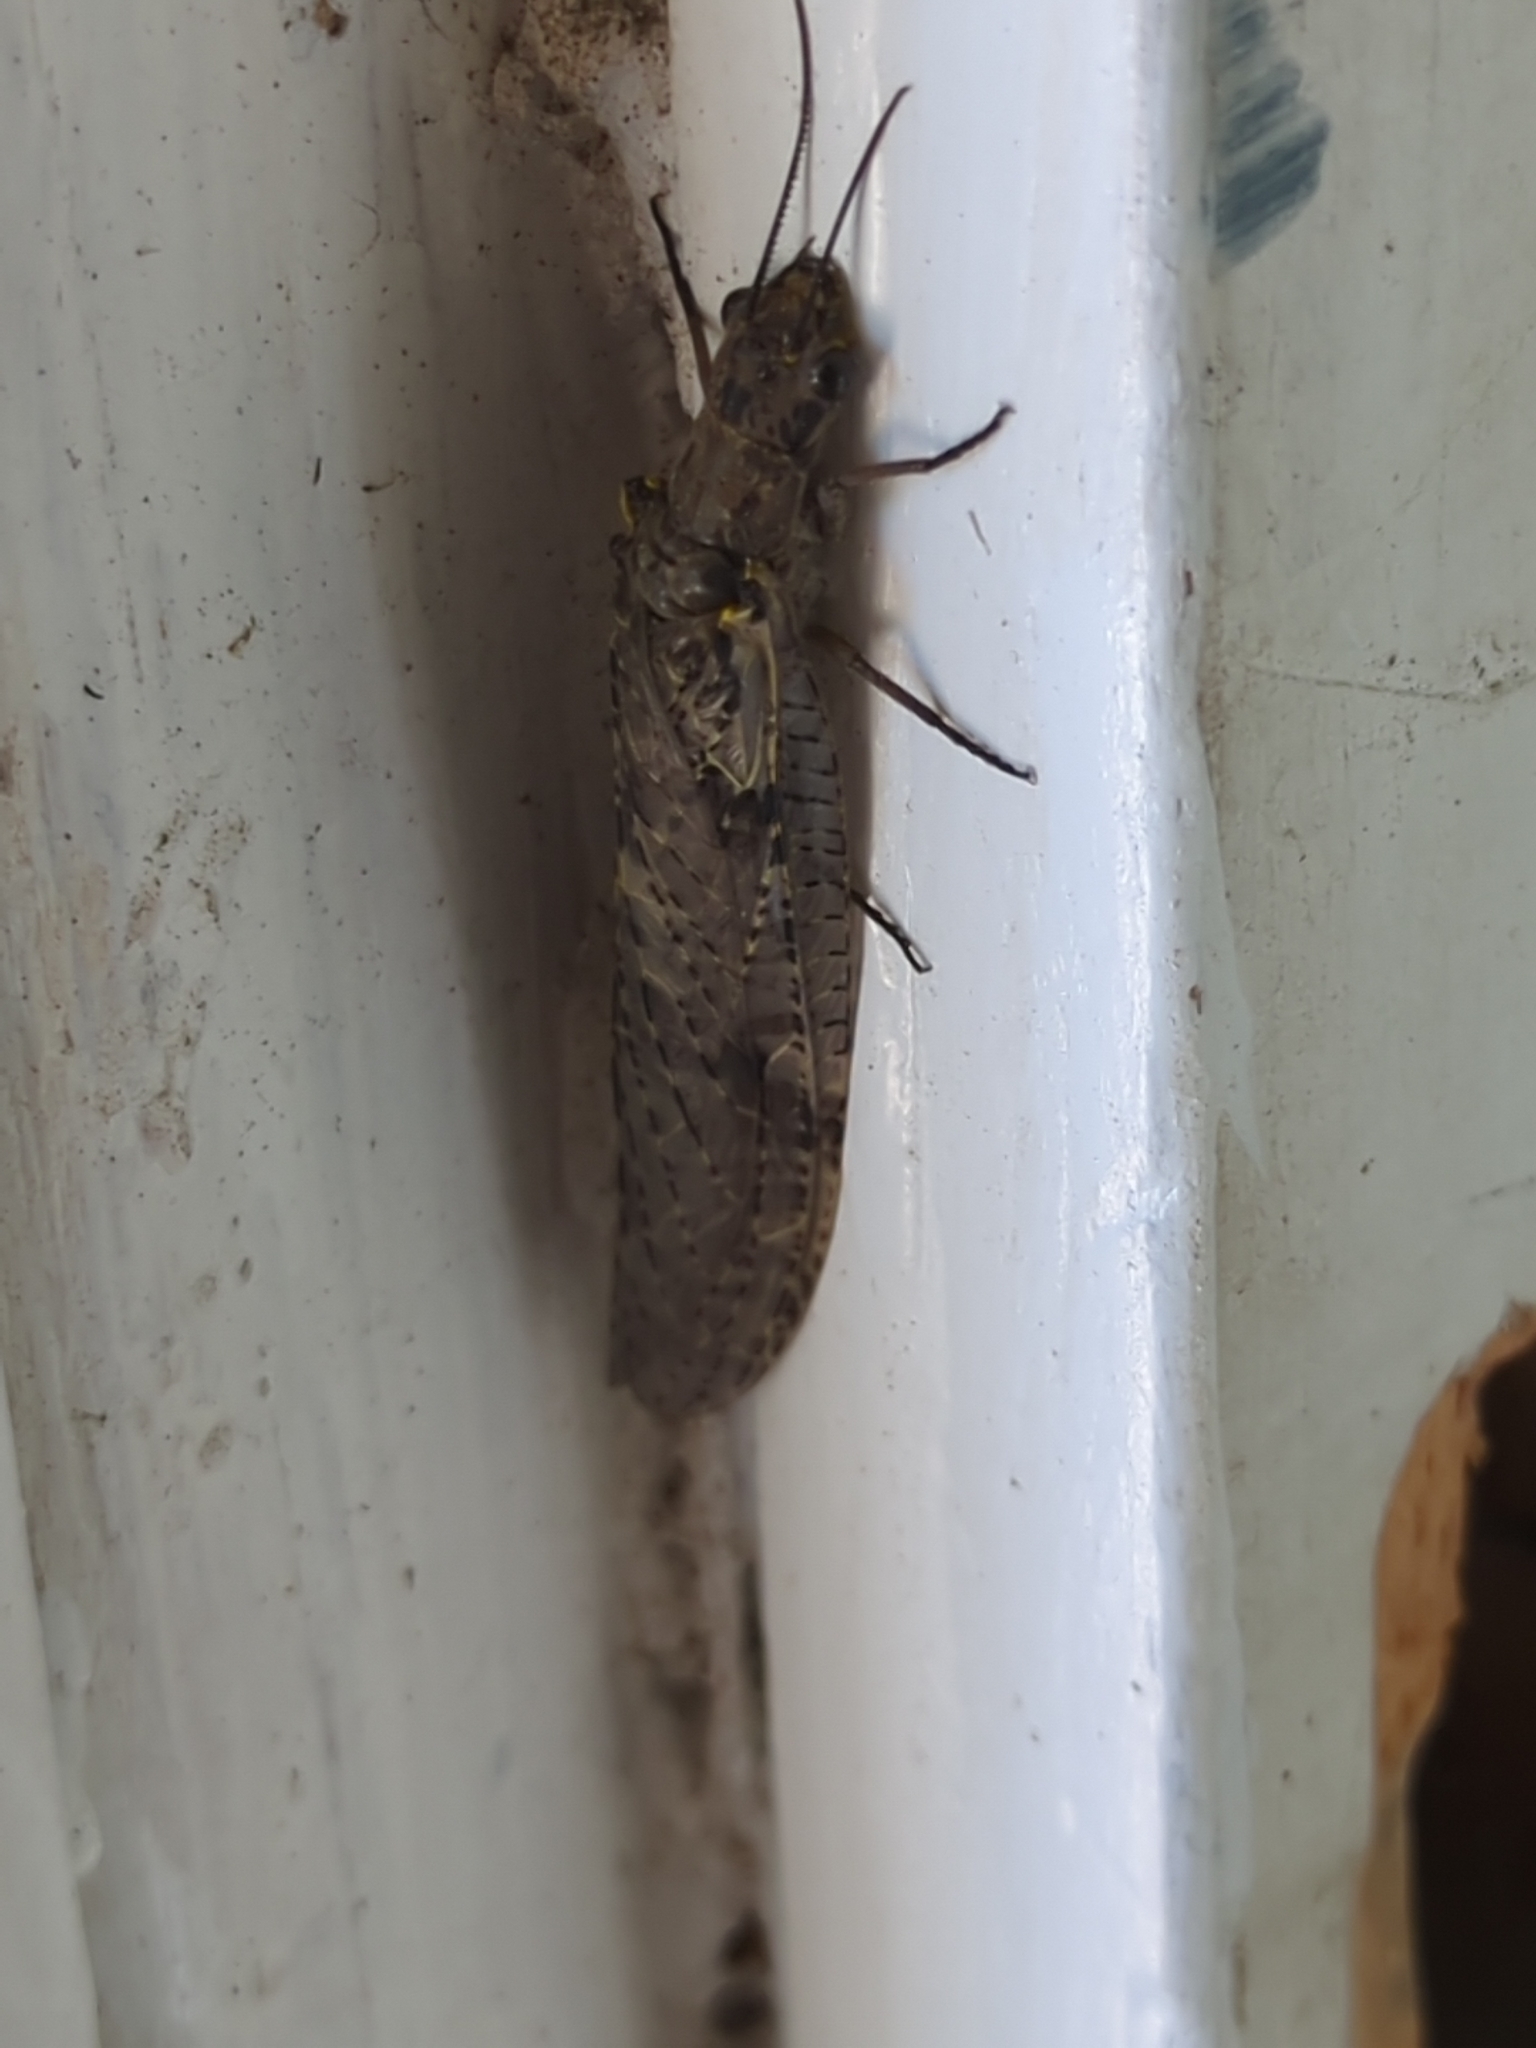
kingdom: Animalia
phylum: Arthropoda
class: Insecta
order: Megaloptera
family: Corydalidae
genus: Chauliodes
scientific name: Chauliodes rastricornis
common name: Spring fishfly
